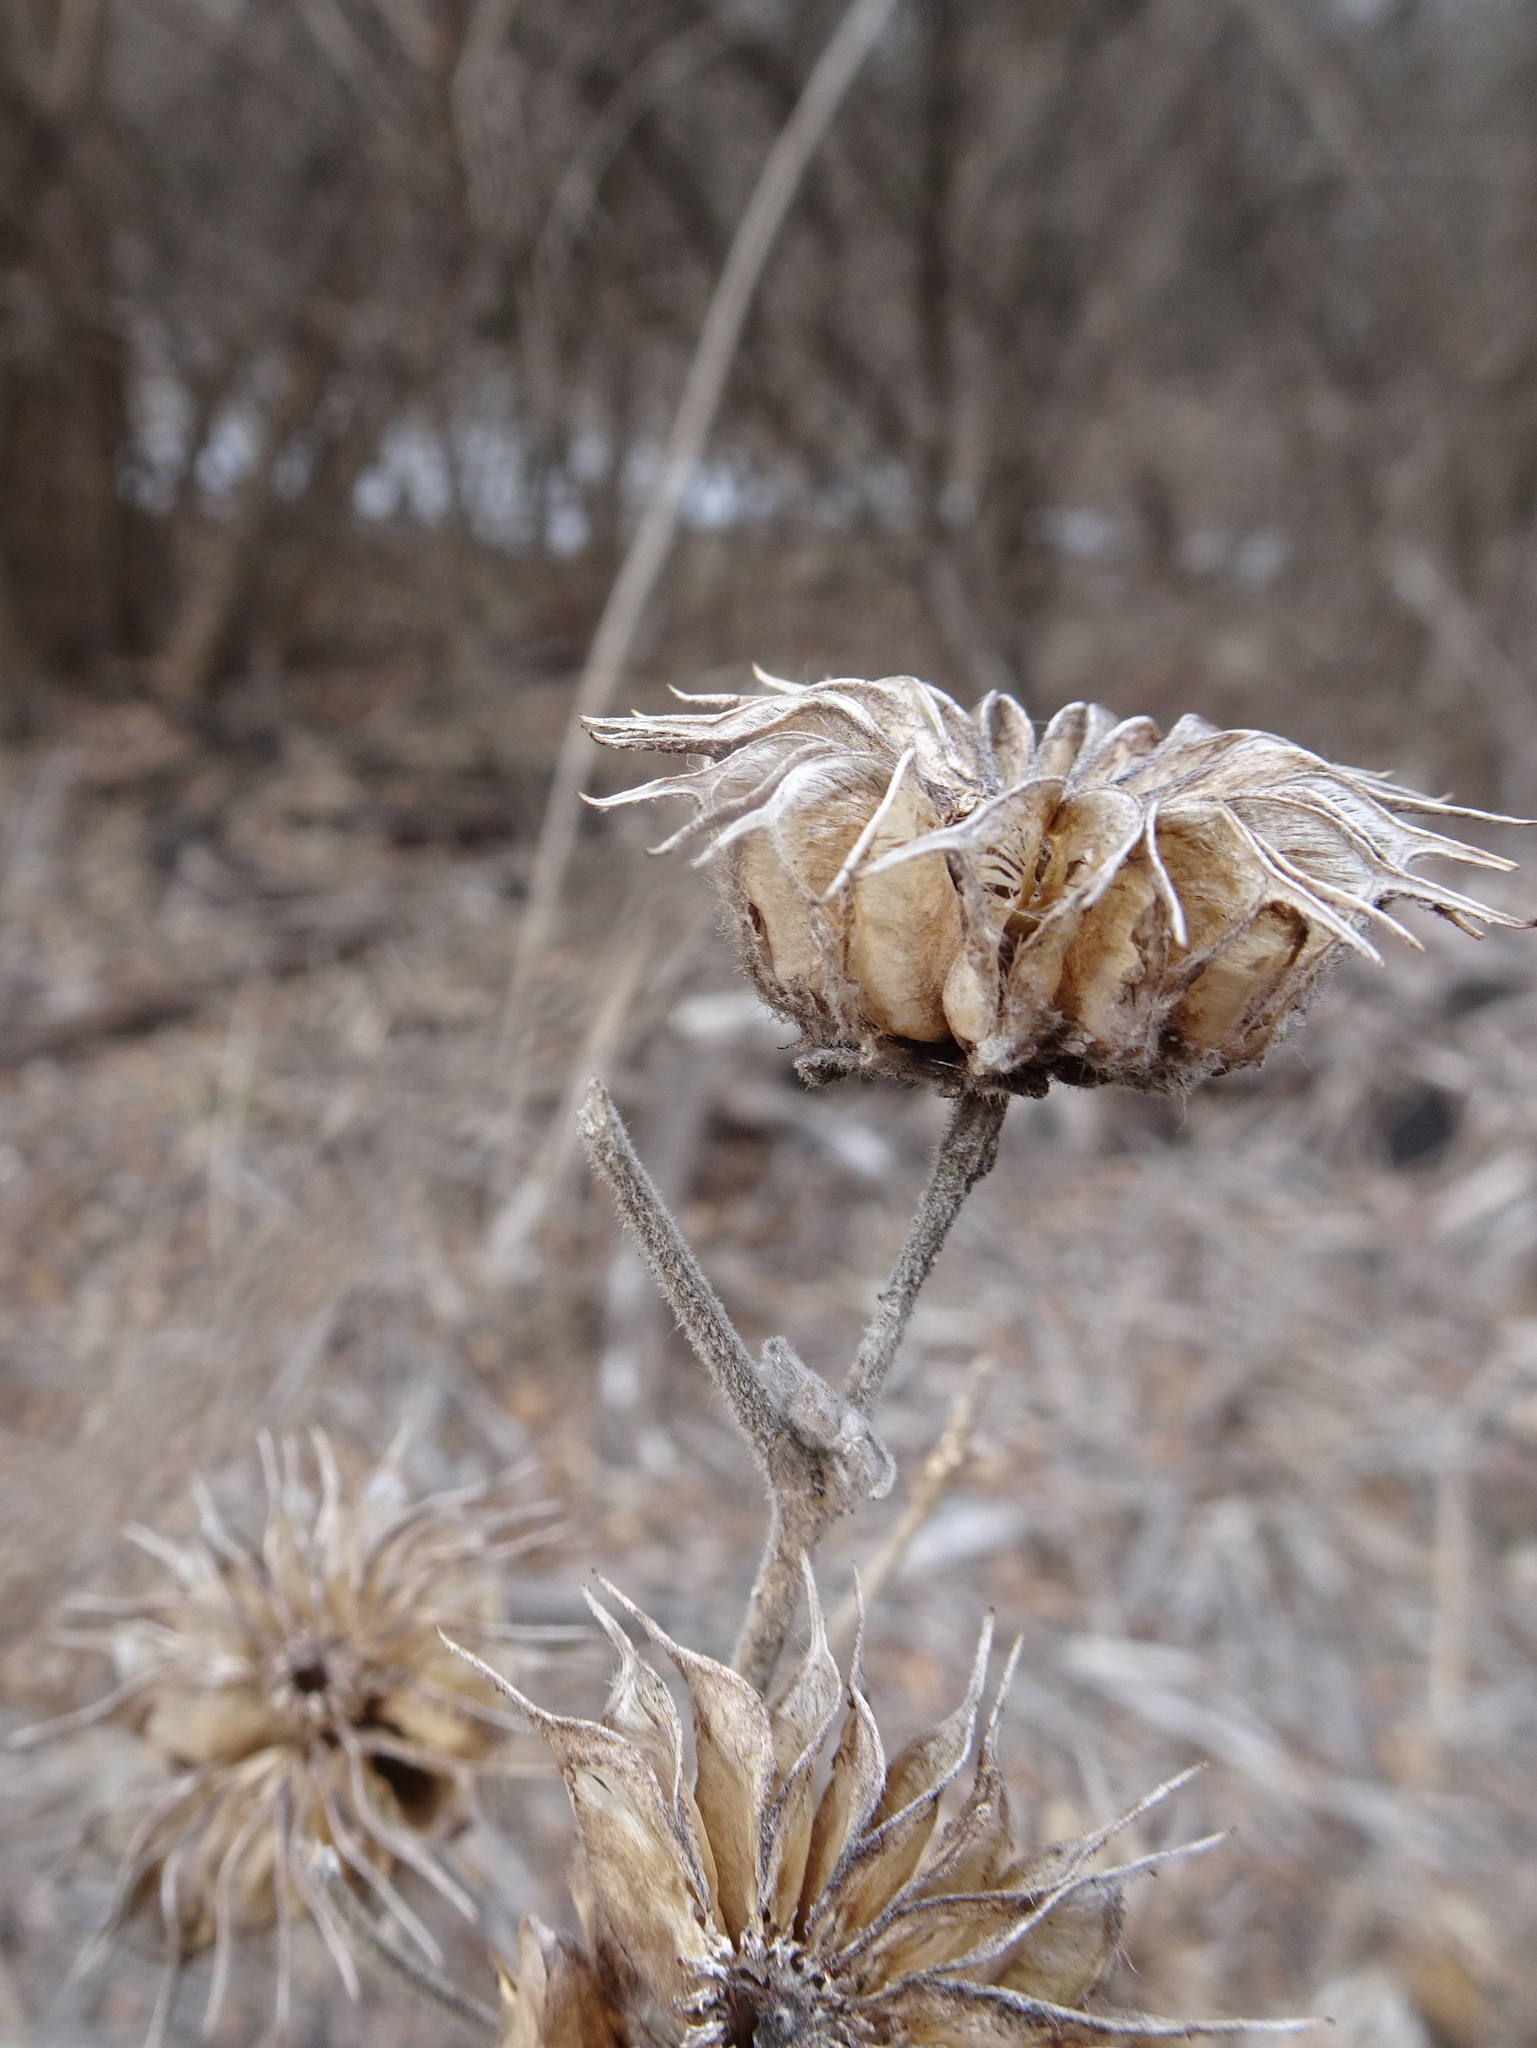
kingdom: Plantae
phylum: Tracheophyta
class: Magnoliopsida
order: Malvales
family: Malvaceae
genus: Abutilon
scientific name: Abutilon theophrasti
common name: Velvetleaf
